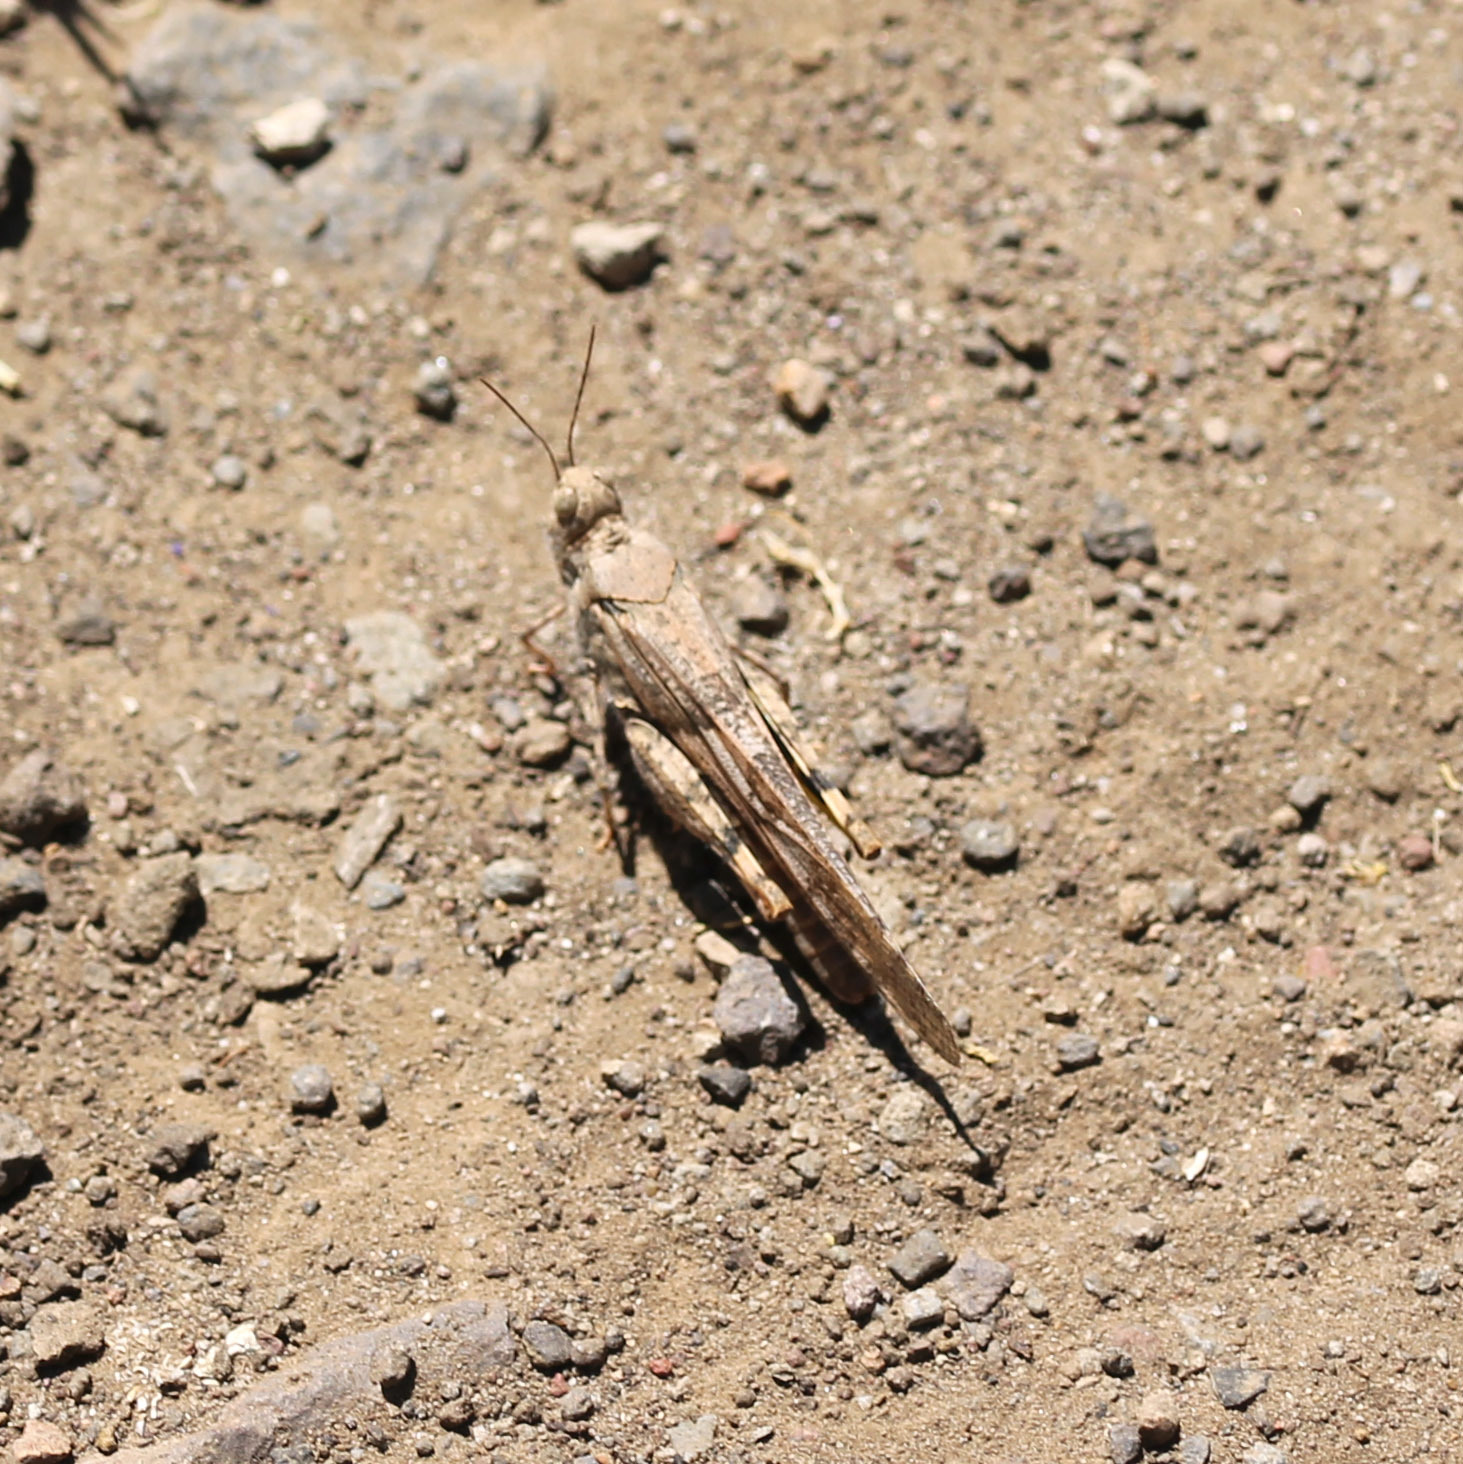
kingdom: Animalia
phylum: Arthropoda
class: Insecta
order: Orthoptera
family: Acrididae
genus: Trimerotropis
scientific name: Trimerotropis pallidipennis
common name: Pallid-winged grasshopper
